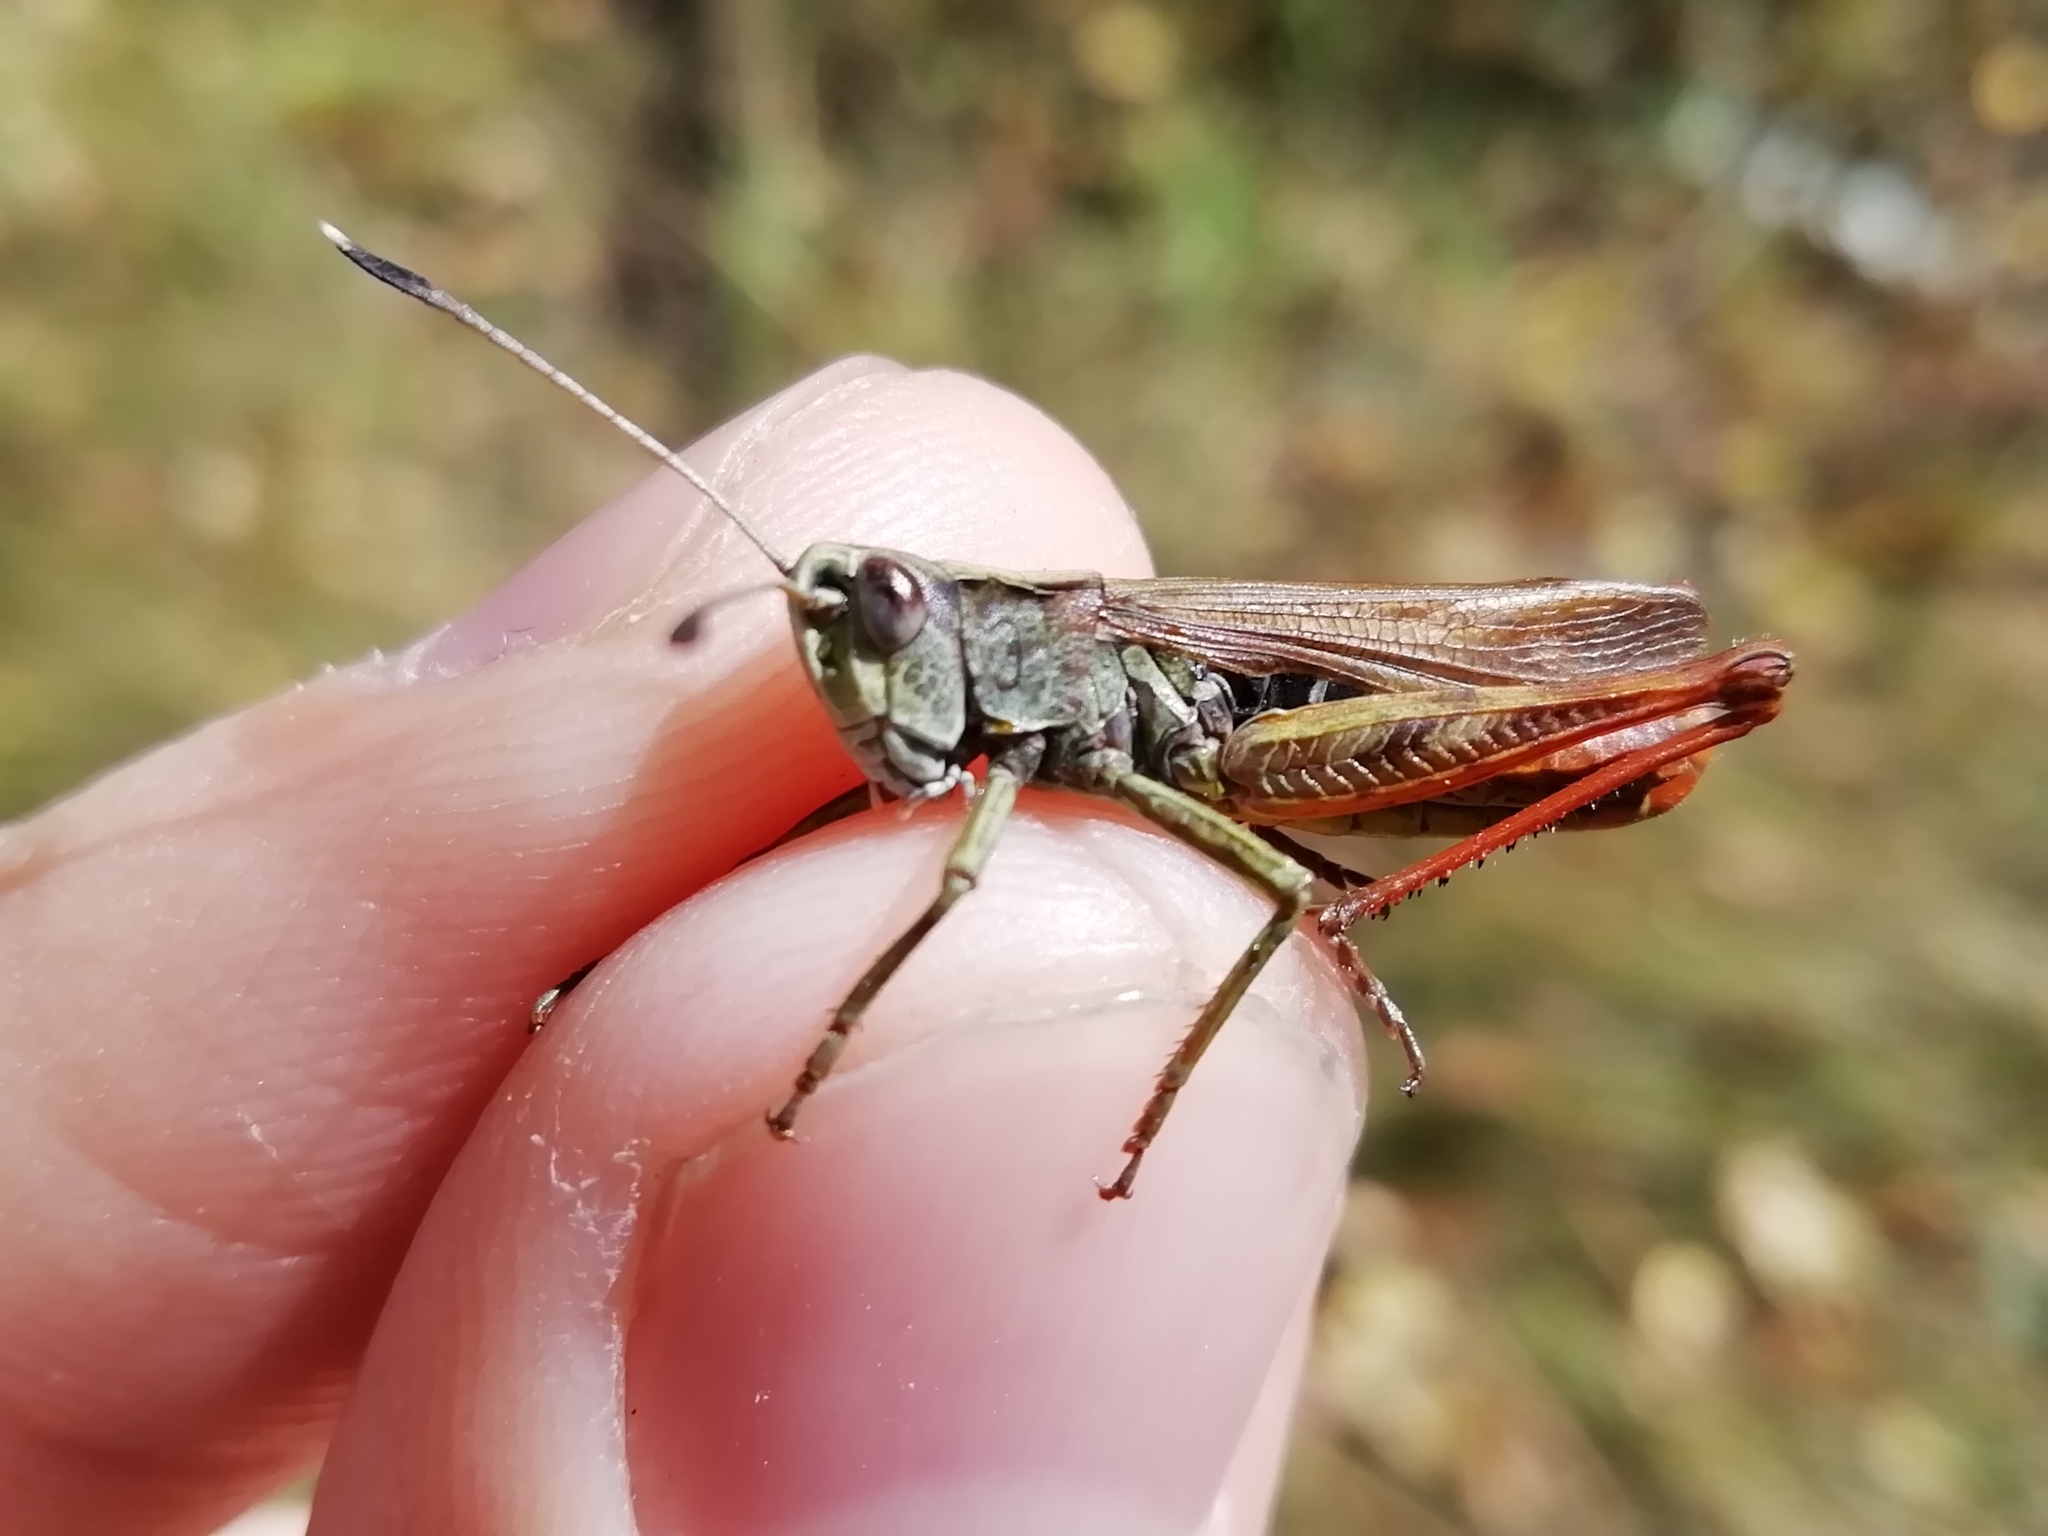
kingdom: Animalia
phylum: Arthropoda
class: Insecta
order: Orthoptera
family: Acrididae
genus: Gomphocerippus
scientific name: Gomphocerippus rufus
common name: Rufous grasshopper
